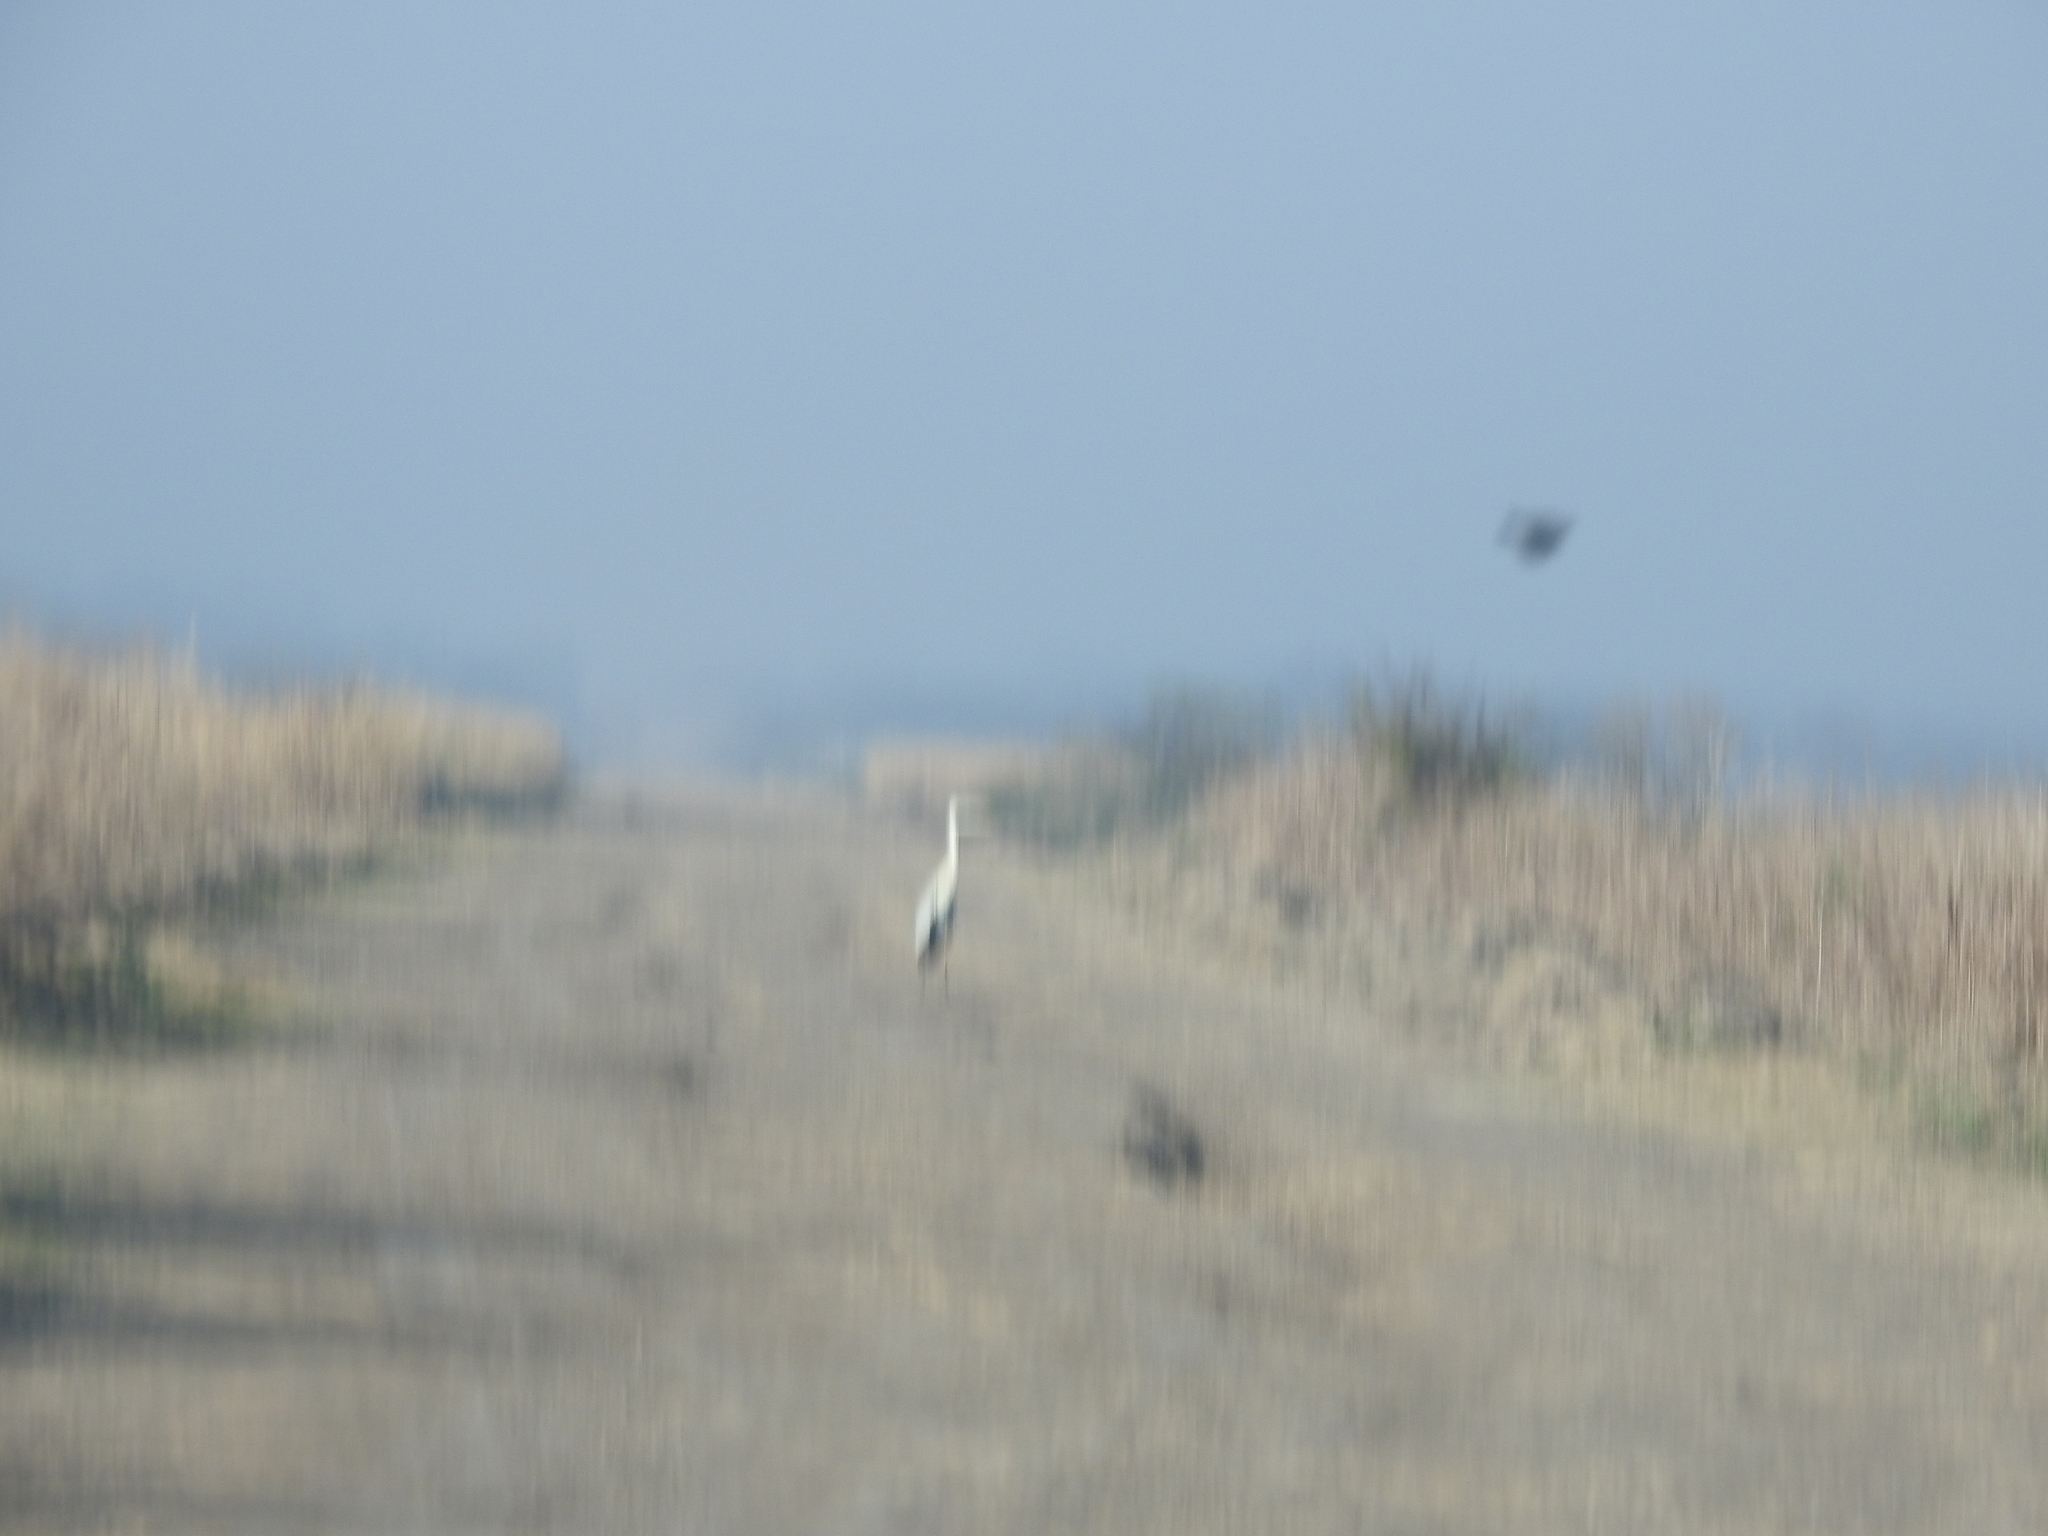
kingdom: Animalia
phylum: Chordata
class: Aves
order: Pelecaniformes
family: Ardeidae
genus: Ardea
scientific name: Ardea cocoi
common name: Cocoi heron
